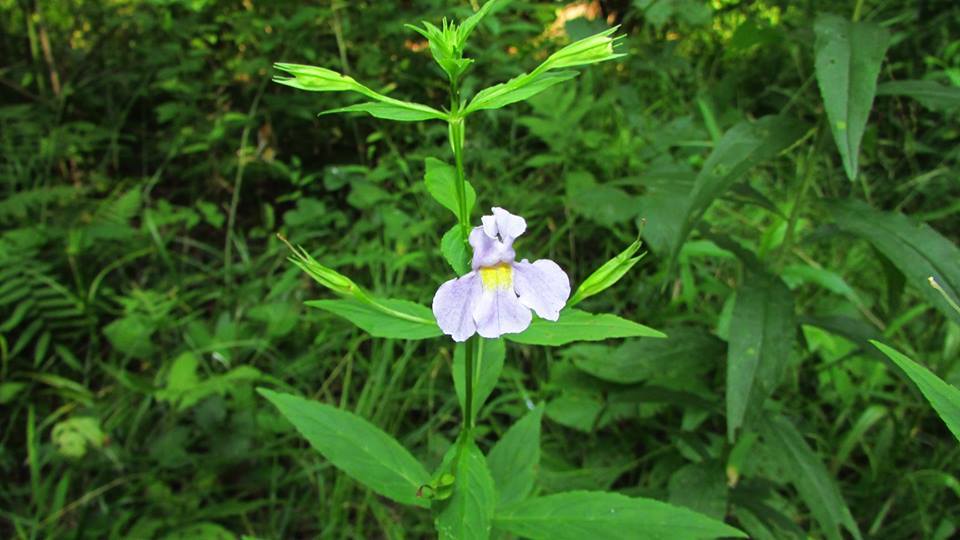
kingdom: Plantae
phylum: Tracheophyta
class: Magnoliopsida
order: Lamiales
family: Phrymaceae
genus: Mimulus
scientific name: Mimulus ringens
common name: Allegheny monkeyflower
